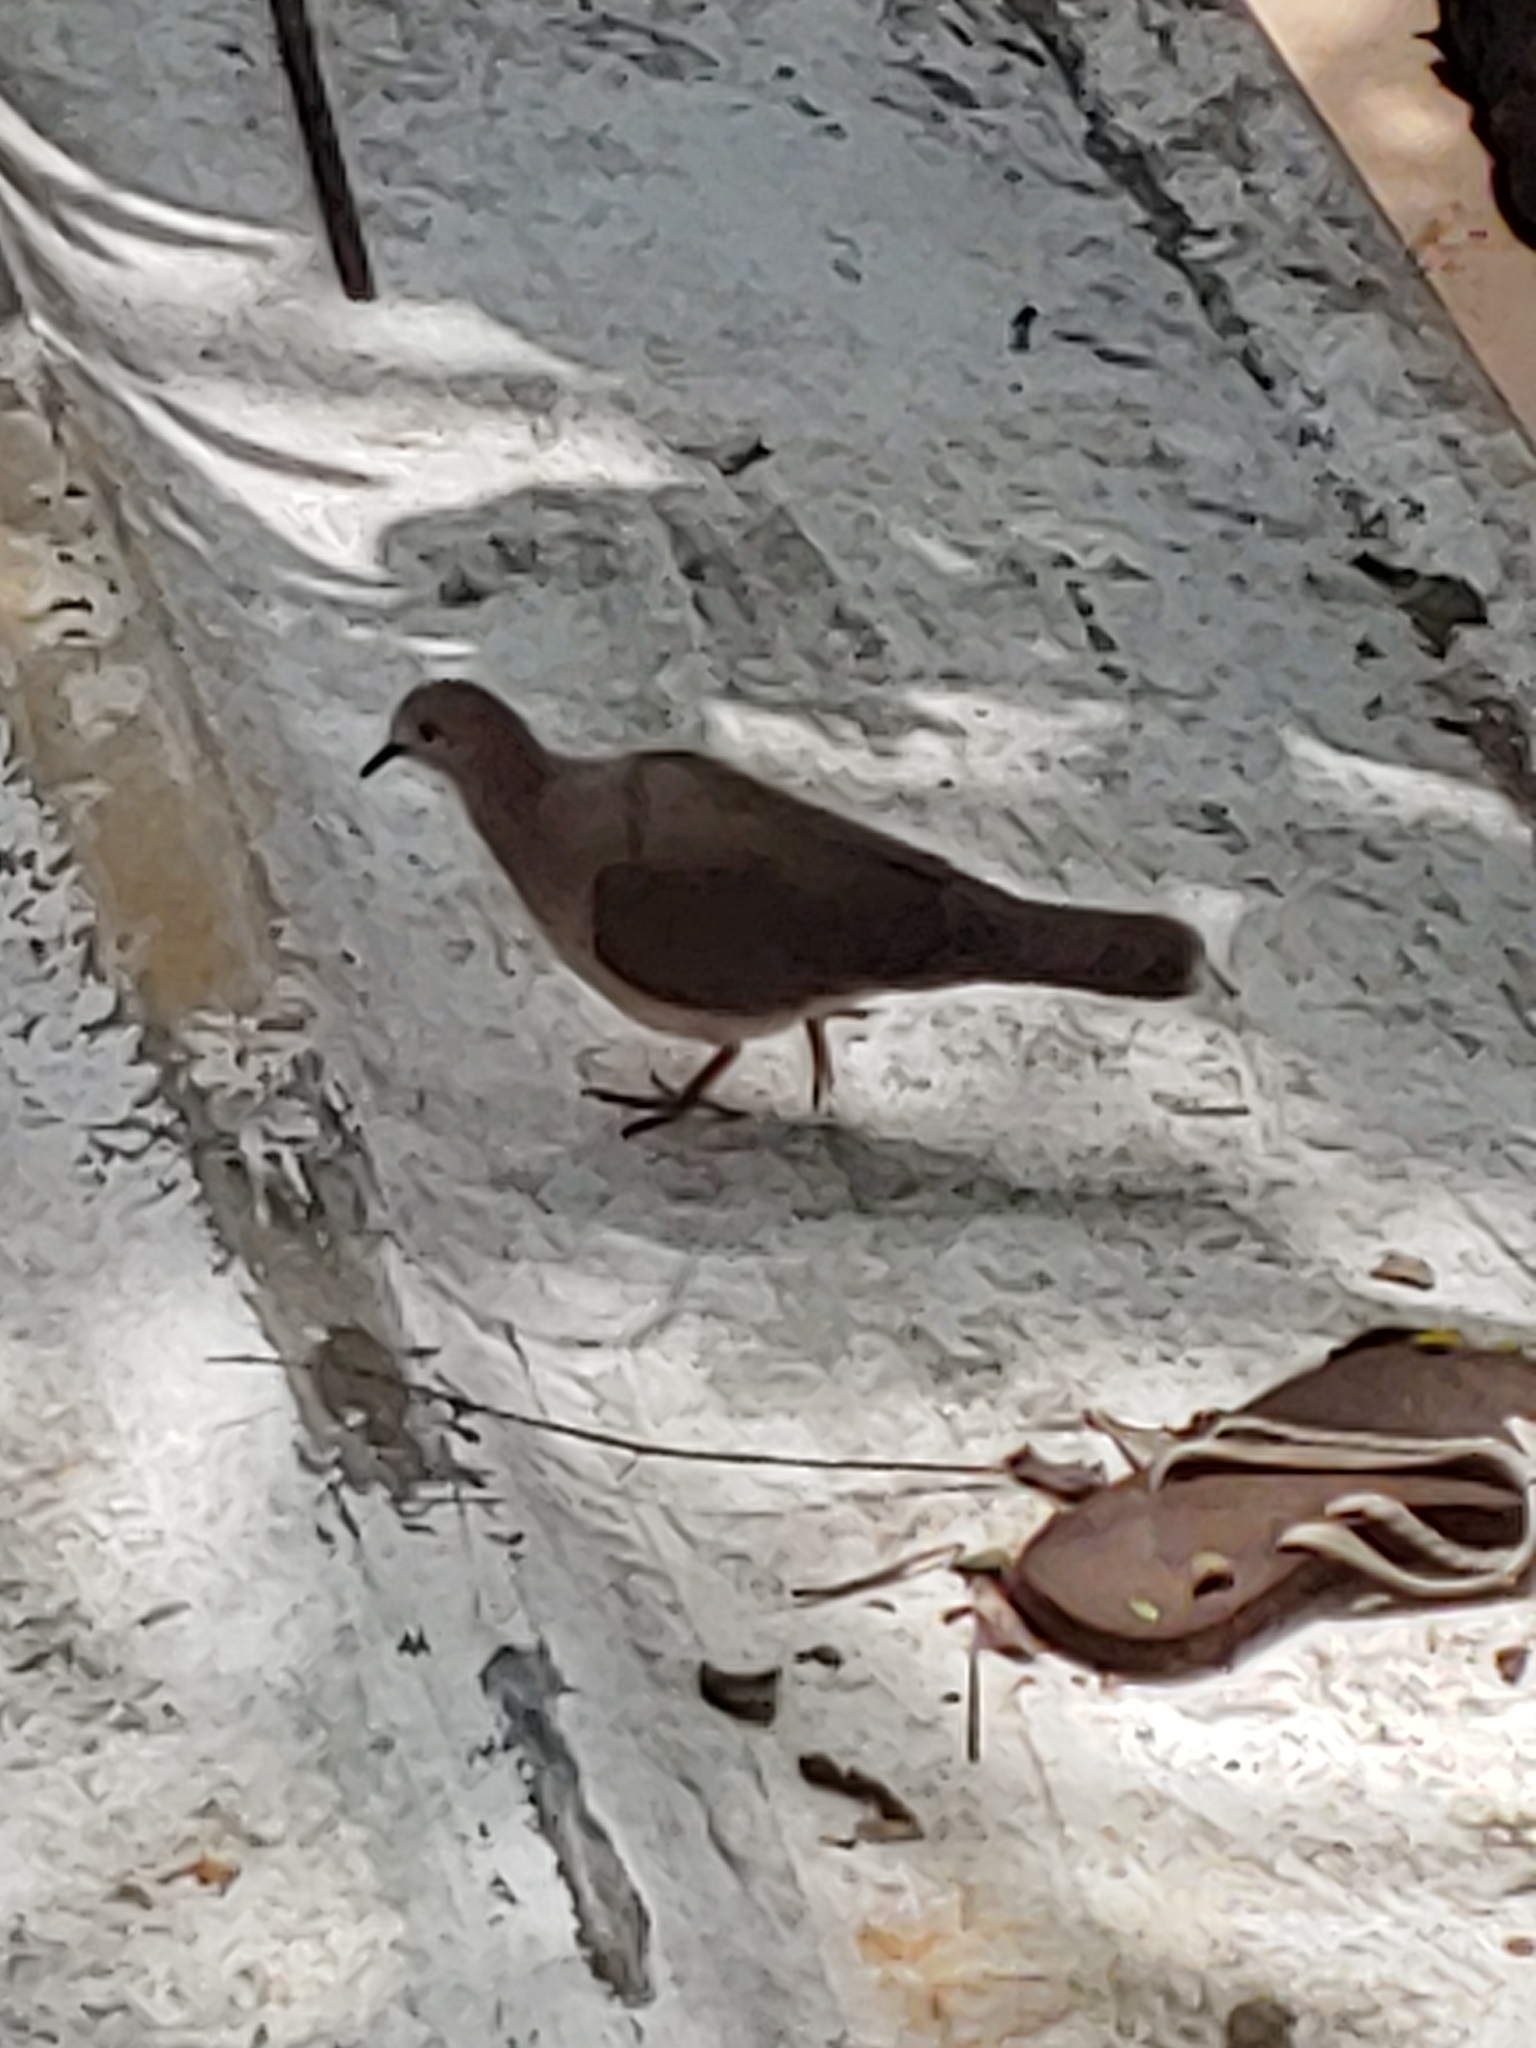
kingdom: Animalia
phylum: Chordata
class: Aves
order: Columbiformes
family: Columbidae
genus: Leptotila
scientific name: Leptotila verreauxi
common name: White-tipped dove
